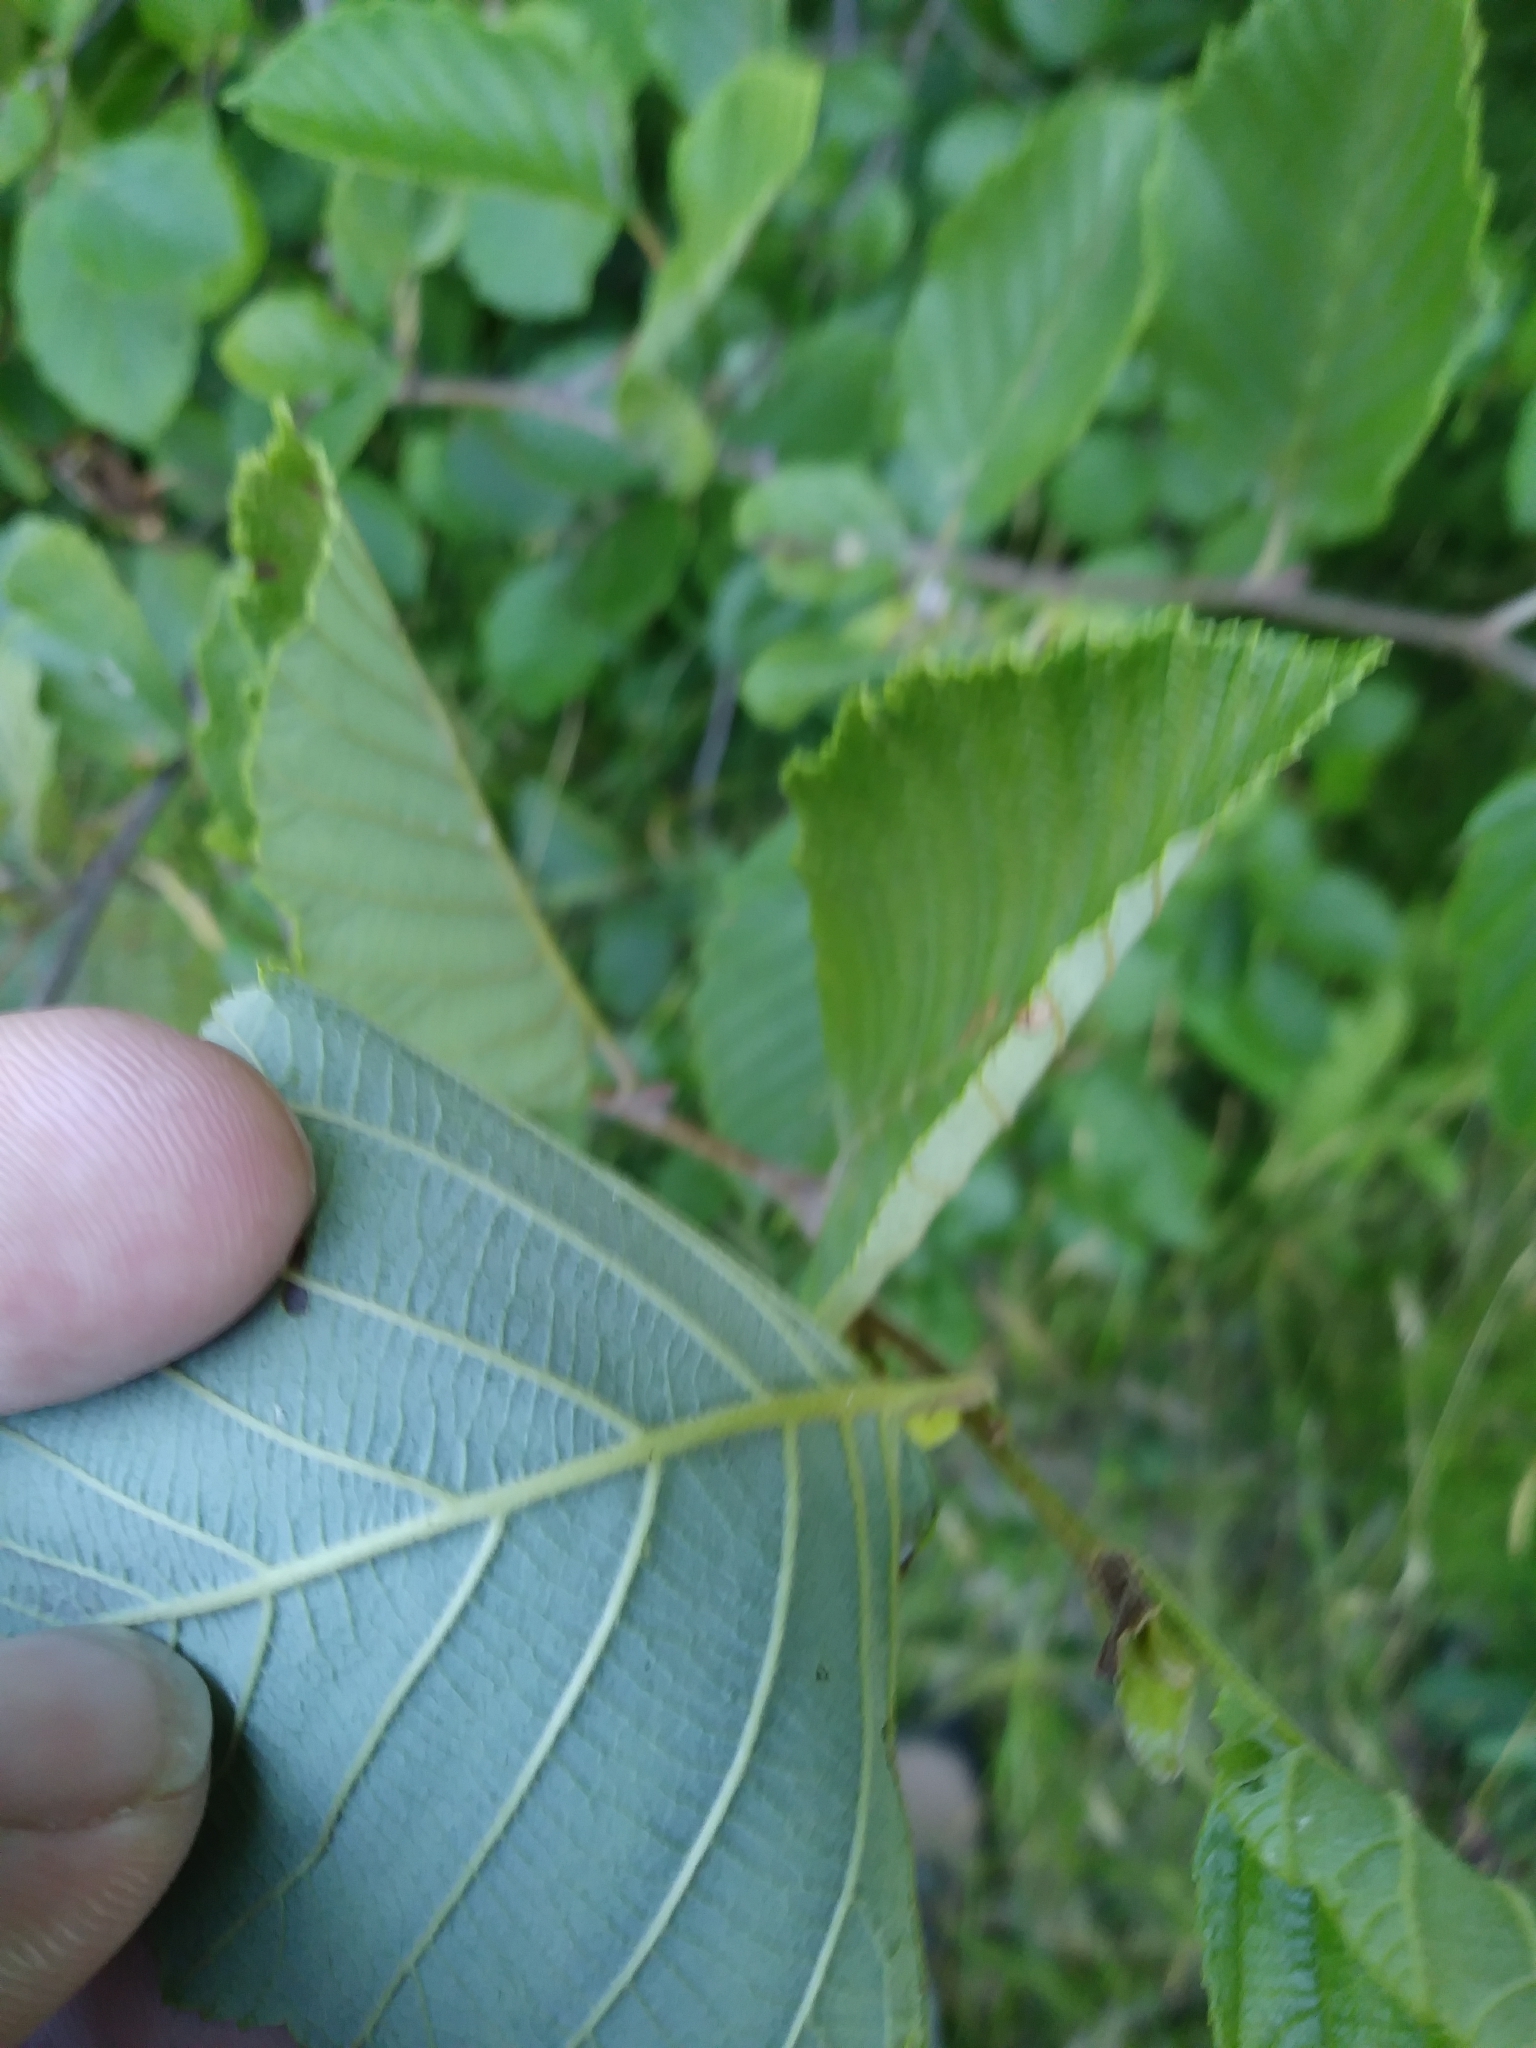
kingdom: Plantae
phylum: Tracheophyta
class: Magnoliopsida
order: Fagales
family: Betulaceae
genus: Alnus
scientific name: Alnus incana
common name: Grey alder
